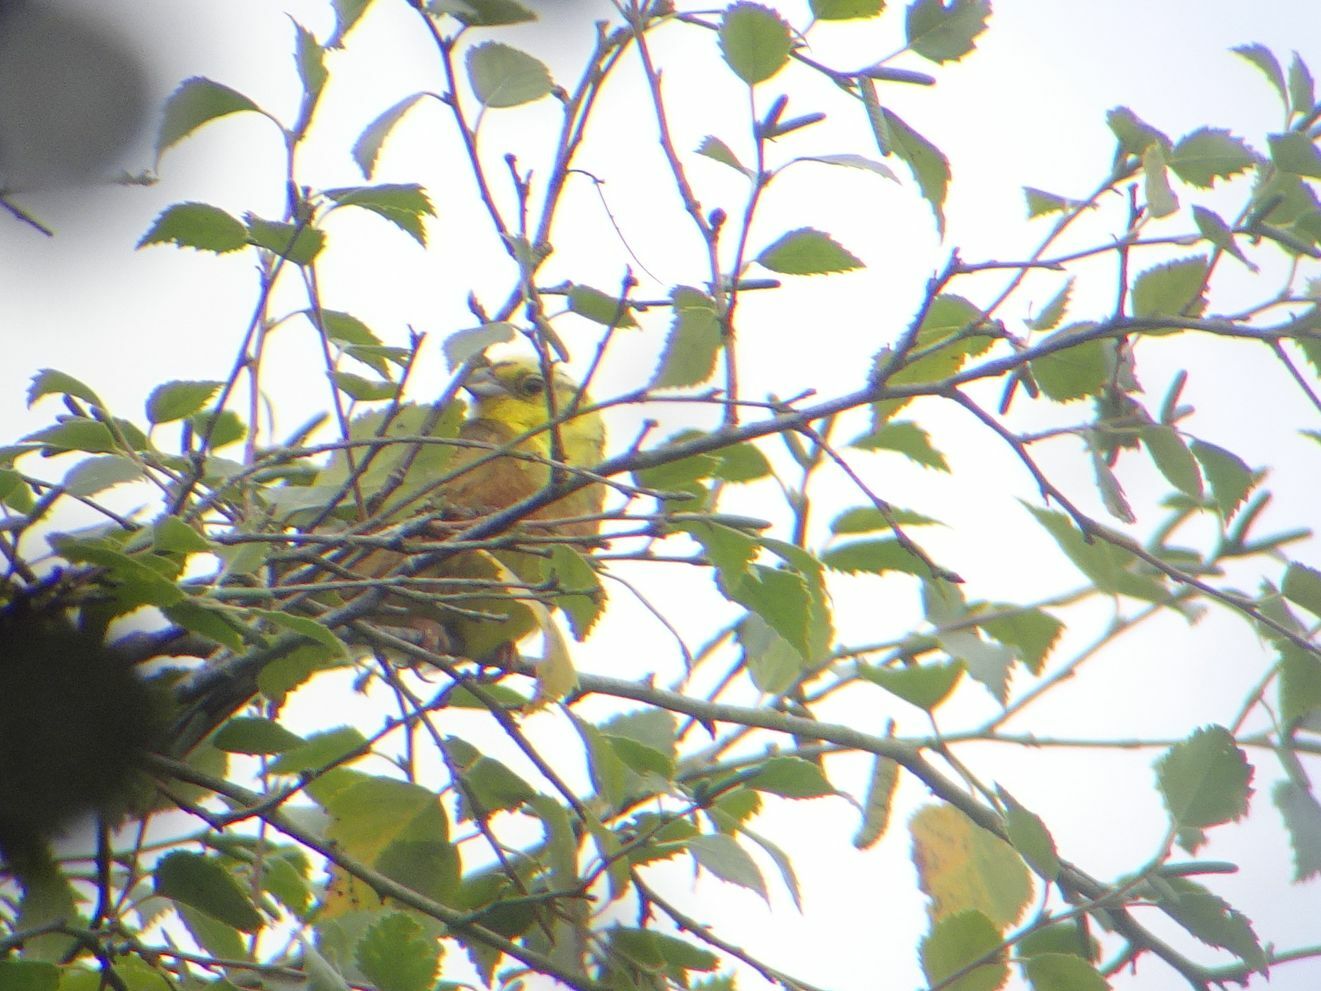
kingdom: Animalia
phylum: Chordata
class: Aves
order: Passeriformes
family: Emberizidae
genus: Emberiza
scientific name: Emberiza citrinella
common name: Yellowhammer
